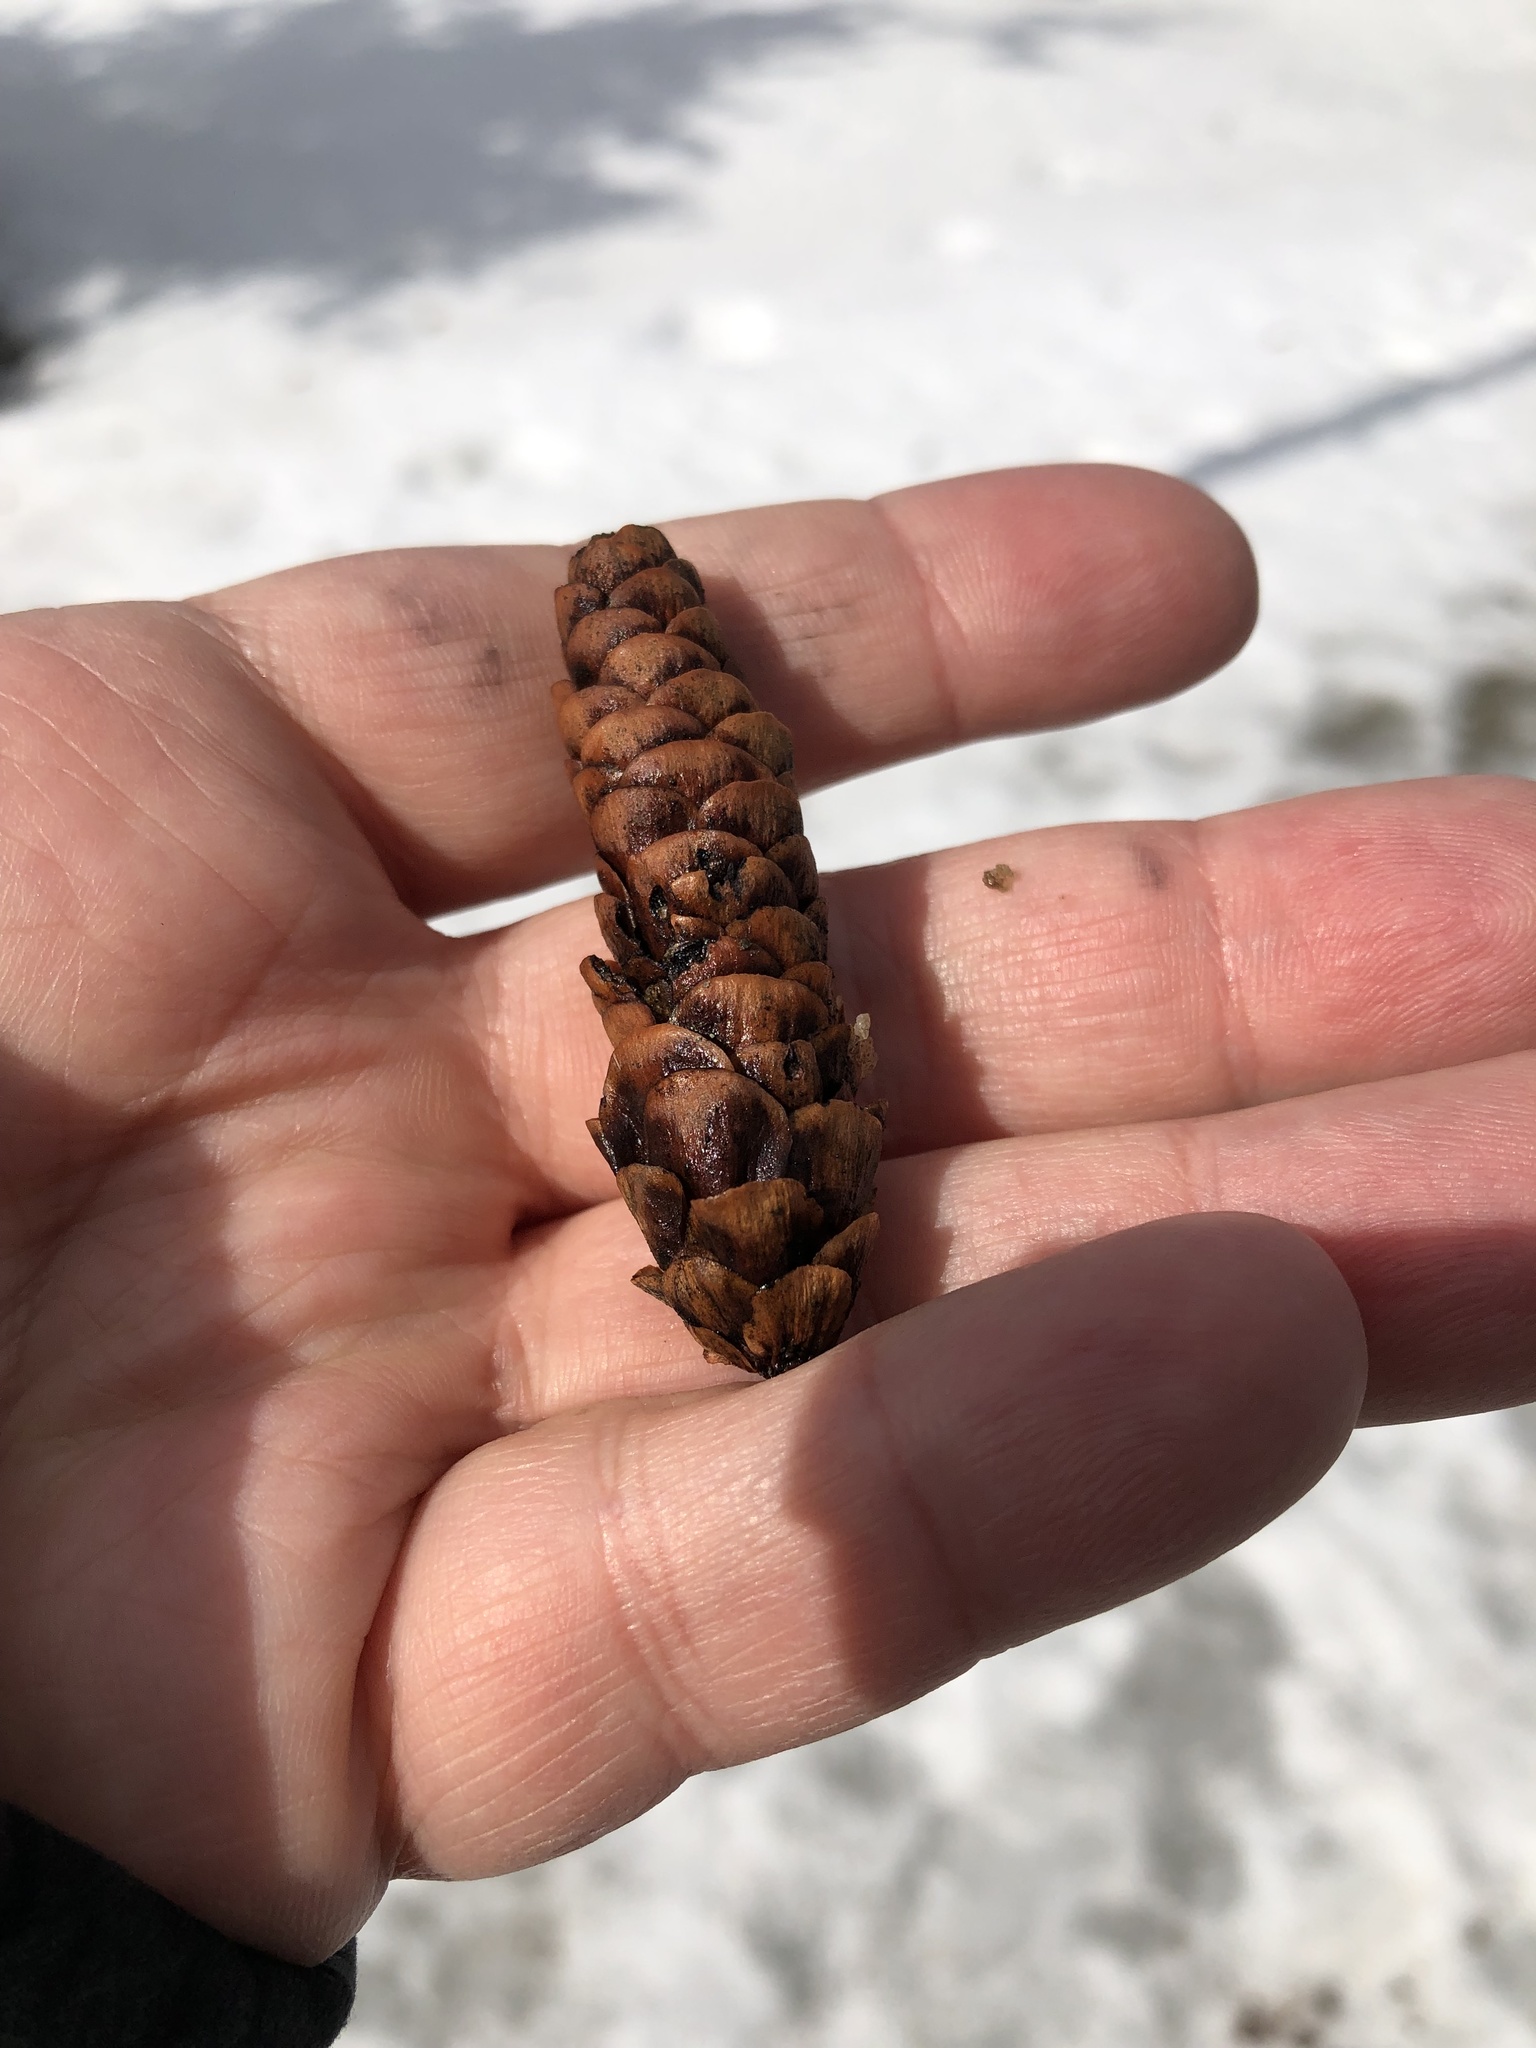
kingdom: Plantae
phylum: Tracheophyta
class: Pinopsida
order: Pinales
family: Pinaceae
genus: Picea
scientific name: Picea glauca
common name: White spruce
